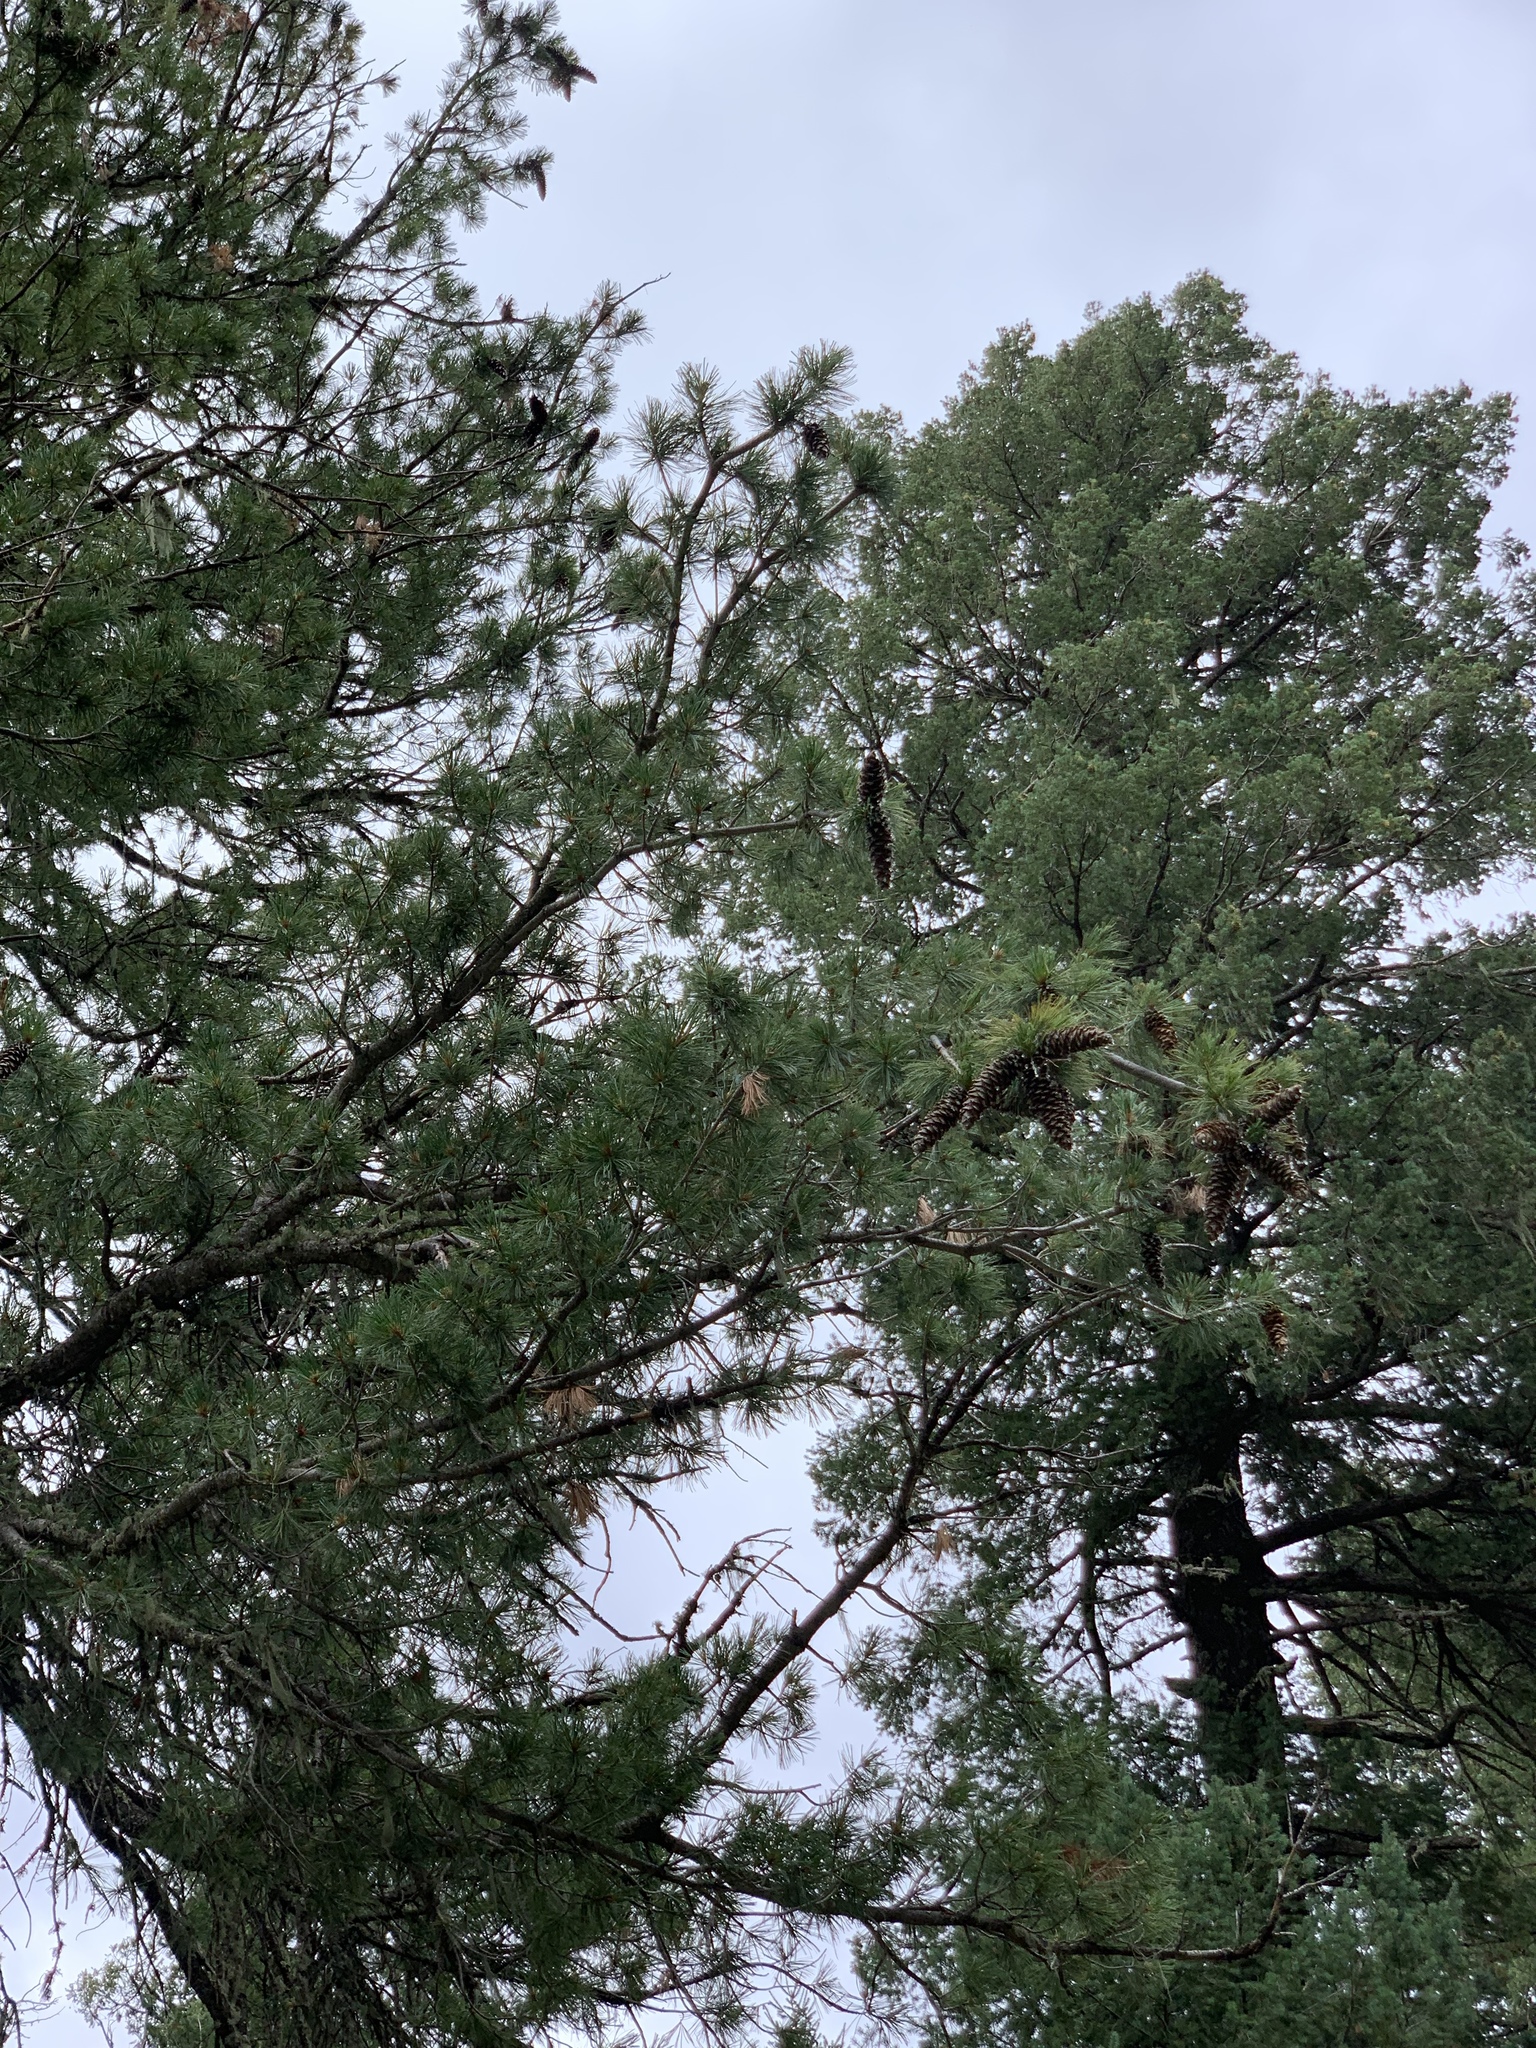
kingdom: Plantae
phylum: Tracheophyta
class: Pinopsida
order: Pinales
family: Pinaceae
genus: Pinus
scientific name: Pinus strobiformis
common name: Southwestern white pine
